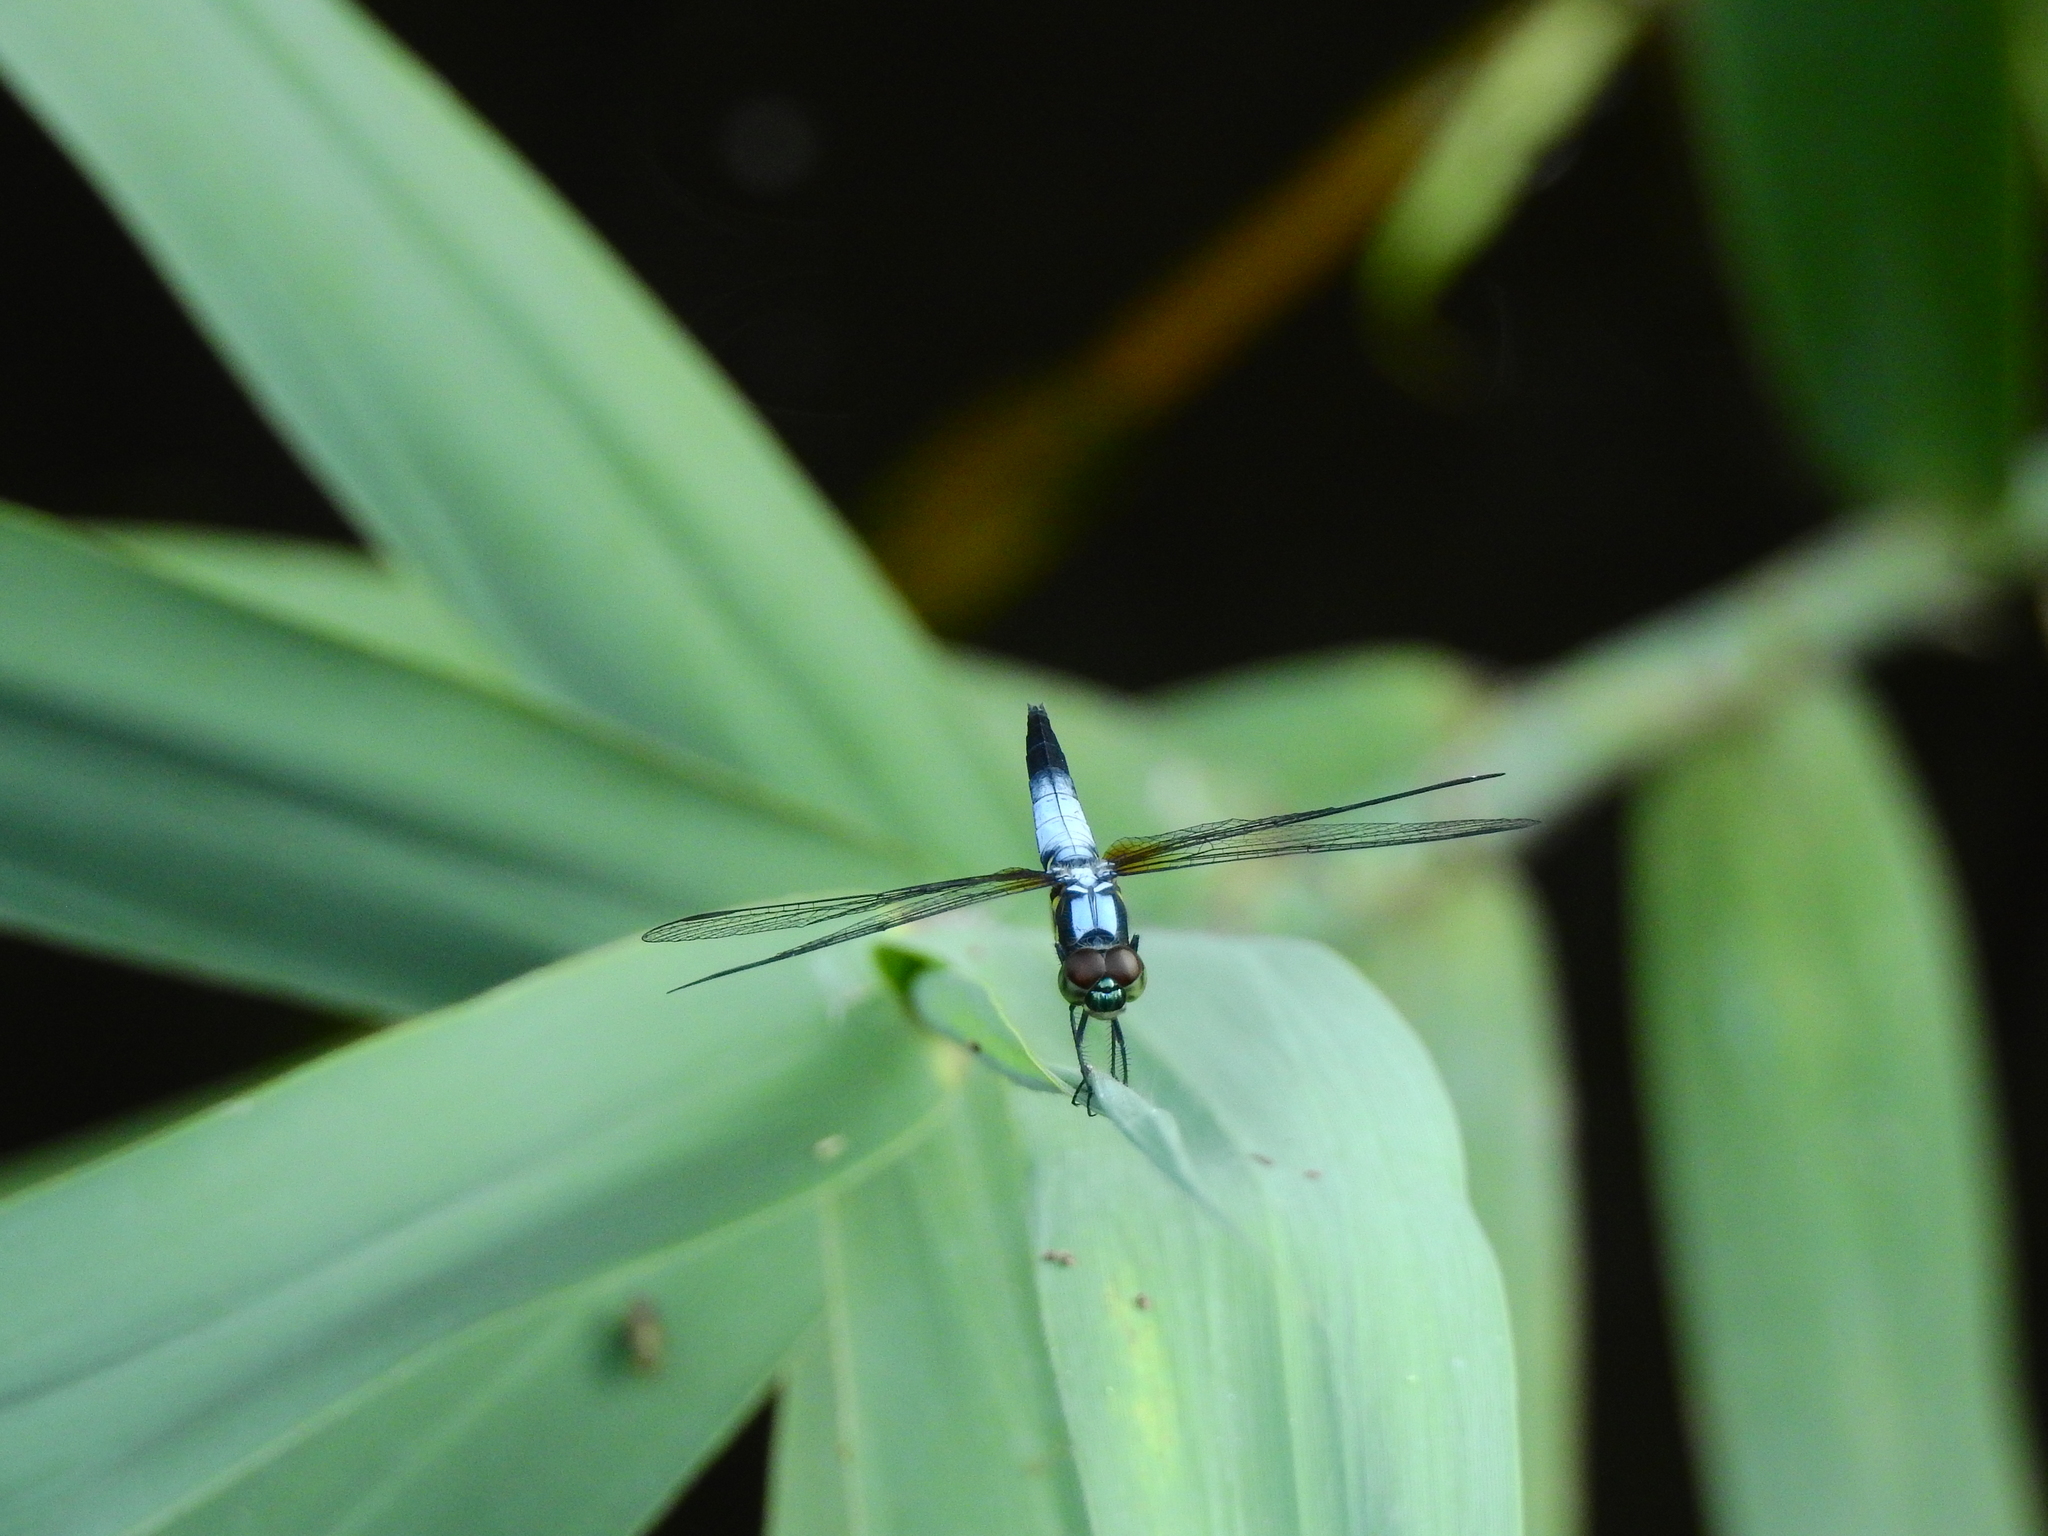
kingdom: Animalia
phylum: Arthropoda
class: Insecta
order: Odonata
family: Libellulidae
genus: Brachydiplax
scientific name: Brachydiplax chalybea
